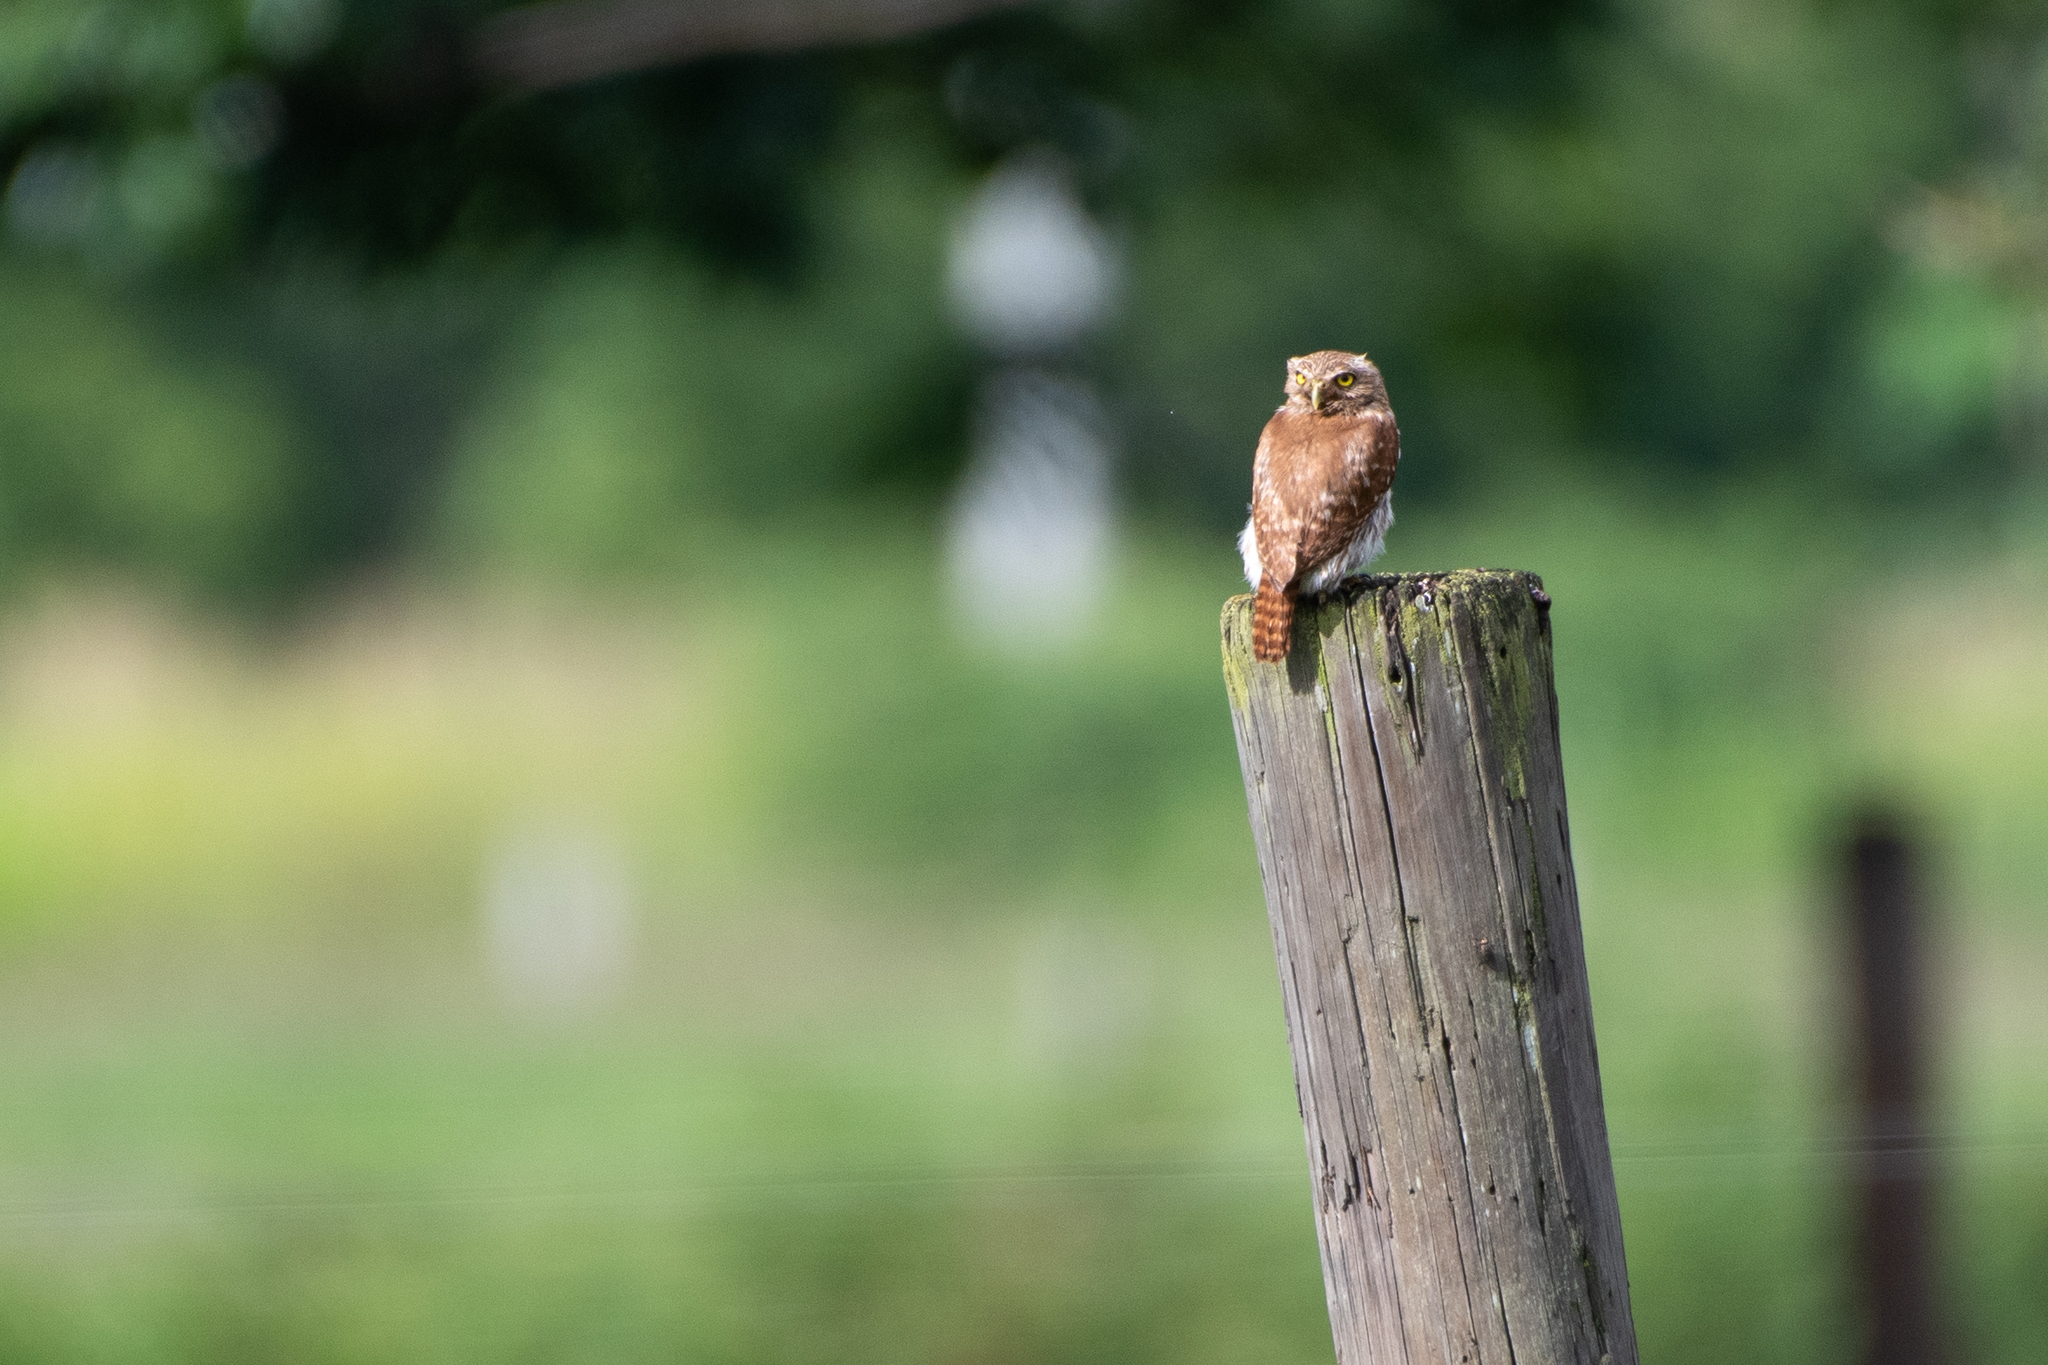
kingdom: Animalia
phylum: Chordata
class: Aves
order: Strigiformes
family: Strigidae
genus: Glaucidium
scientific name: Glaucidium brasilianum
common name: Ferruginous pygmy-owl
